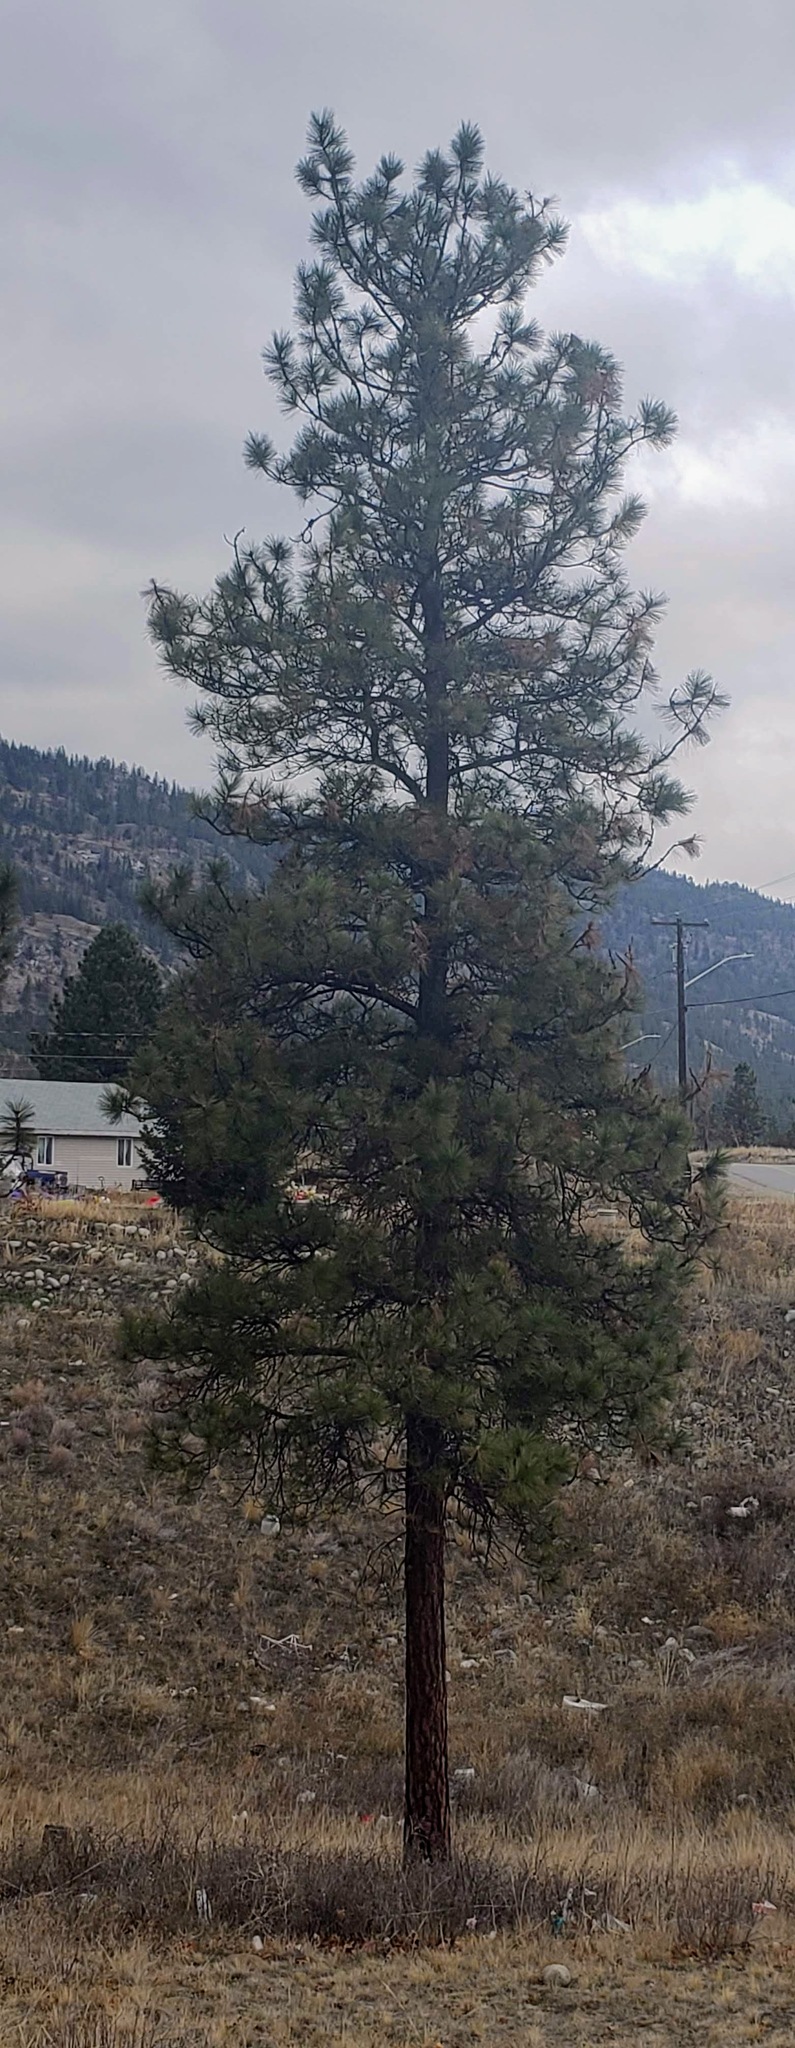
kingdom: Plantae
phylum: Tracheophyta
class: Pinopsida
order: Pinales
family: Pinaceae
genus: Pinus
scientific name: Pinus ponderosa
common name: Western yellow-pine
